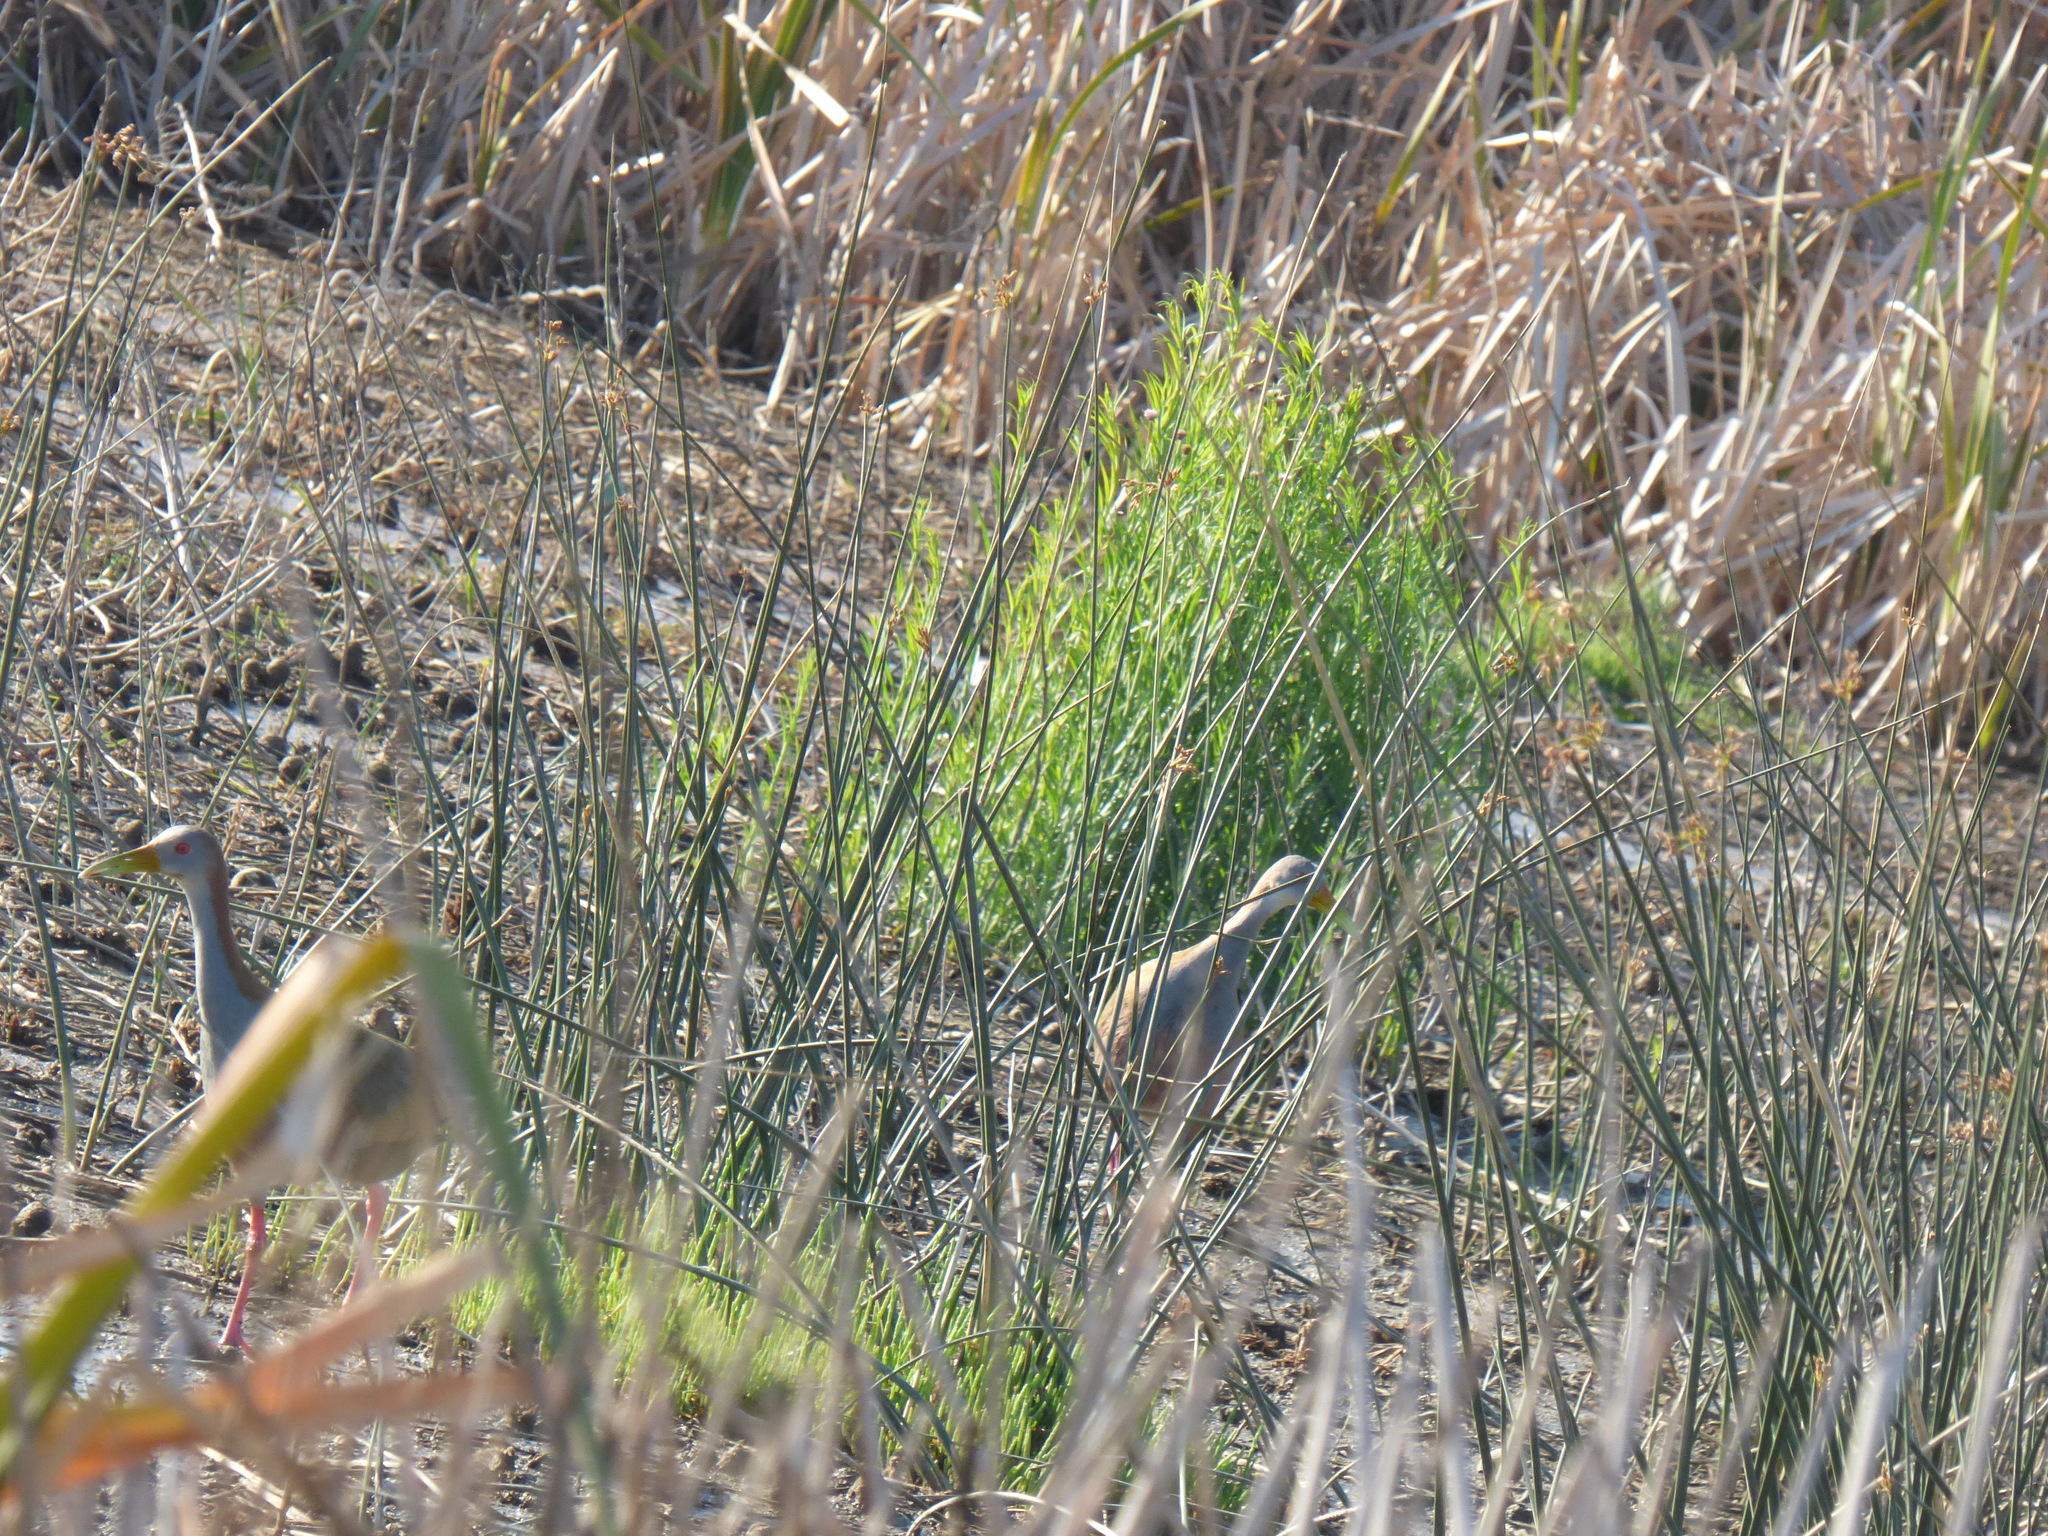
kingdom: Animalia
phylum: Chordata
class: Aves
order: Gruiformes
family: Rallidae
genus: Aramides
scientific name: Aramides ypecaha
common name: Giant wood rail
